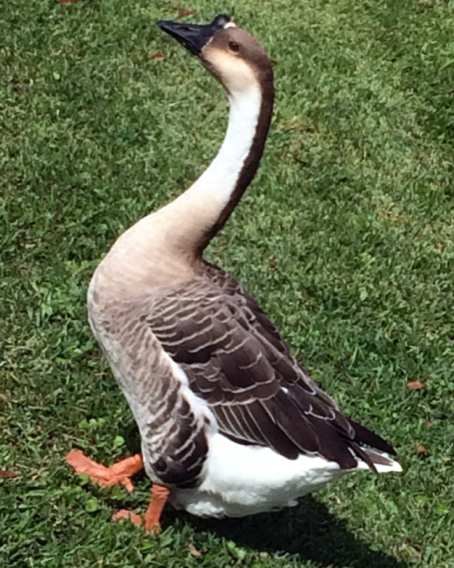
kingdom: Animalia
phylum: Chordata
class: Aves
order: Anseriformes
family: Anatidae
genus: Anser
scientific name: Anser cygnoides
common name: Swan goose
